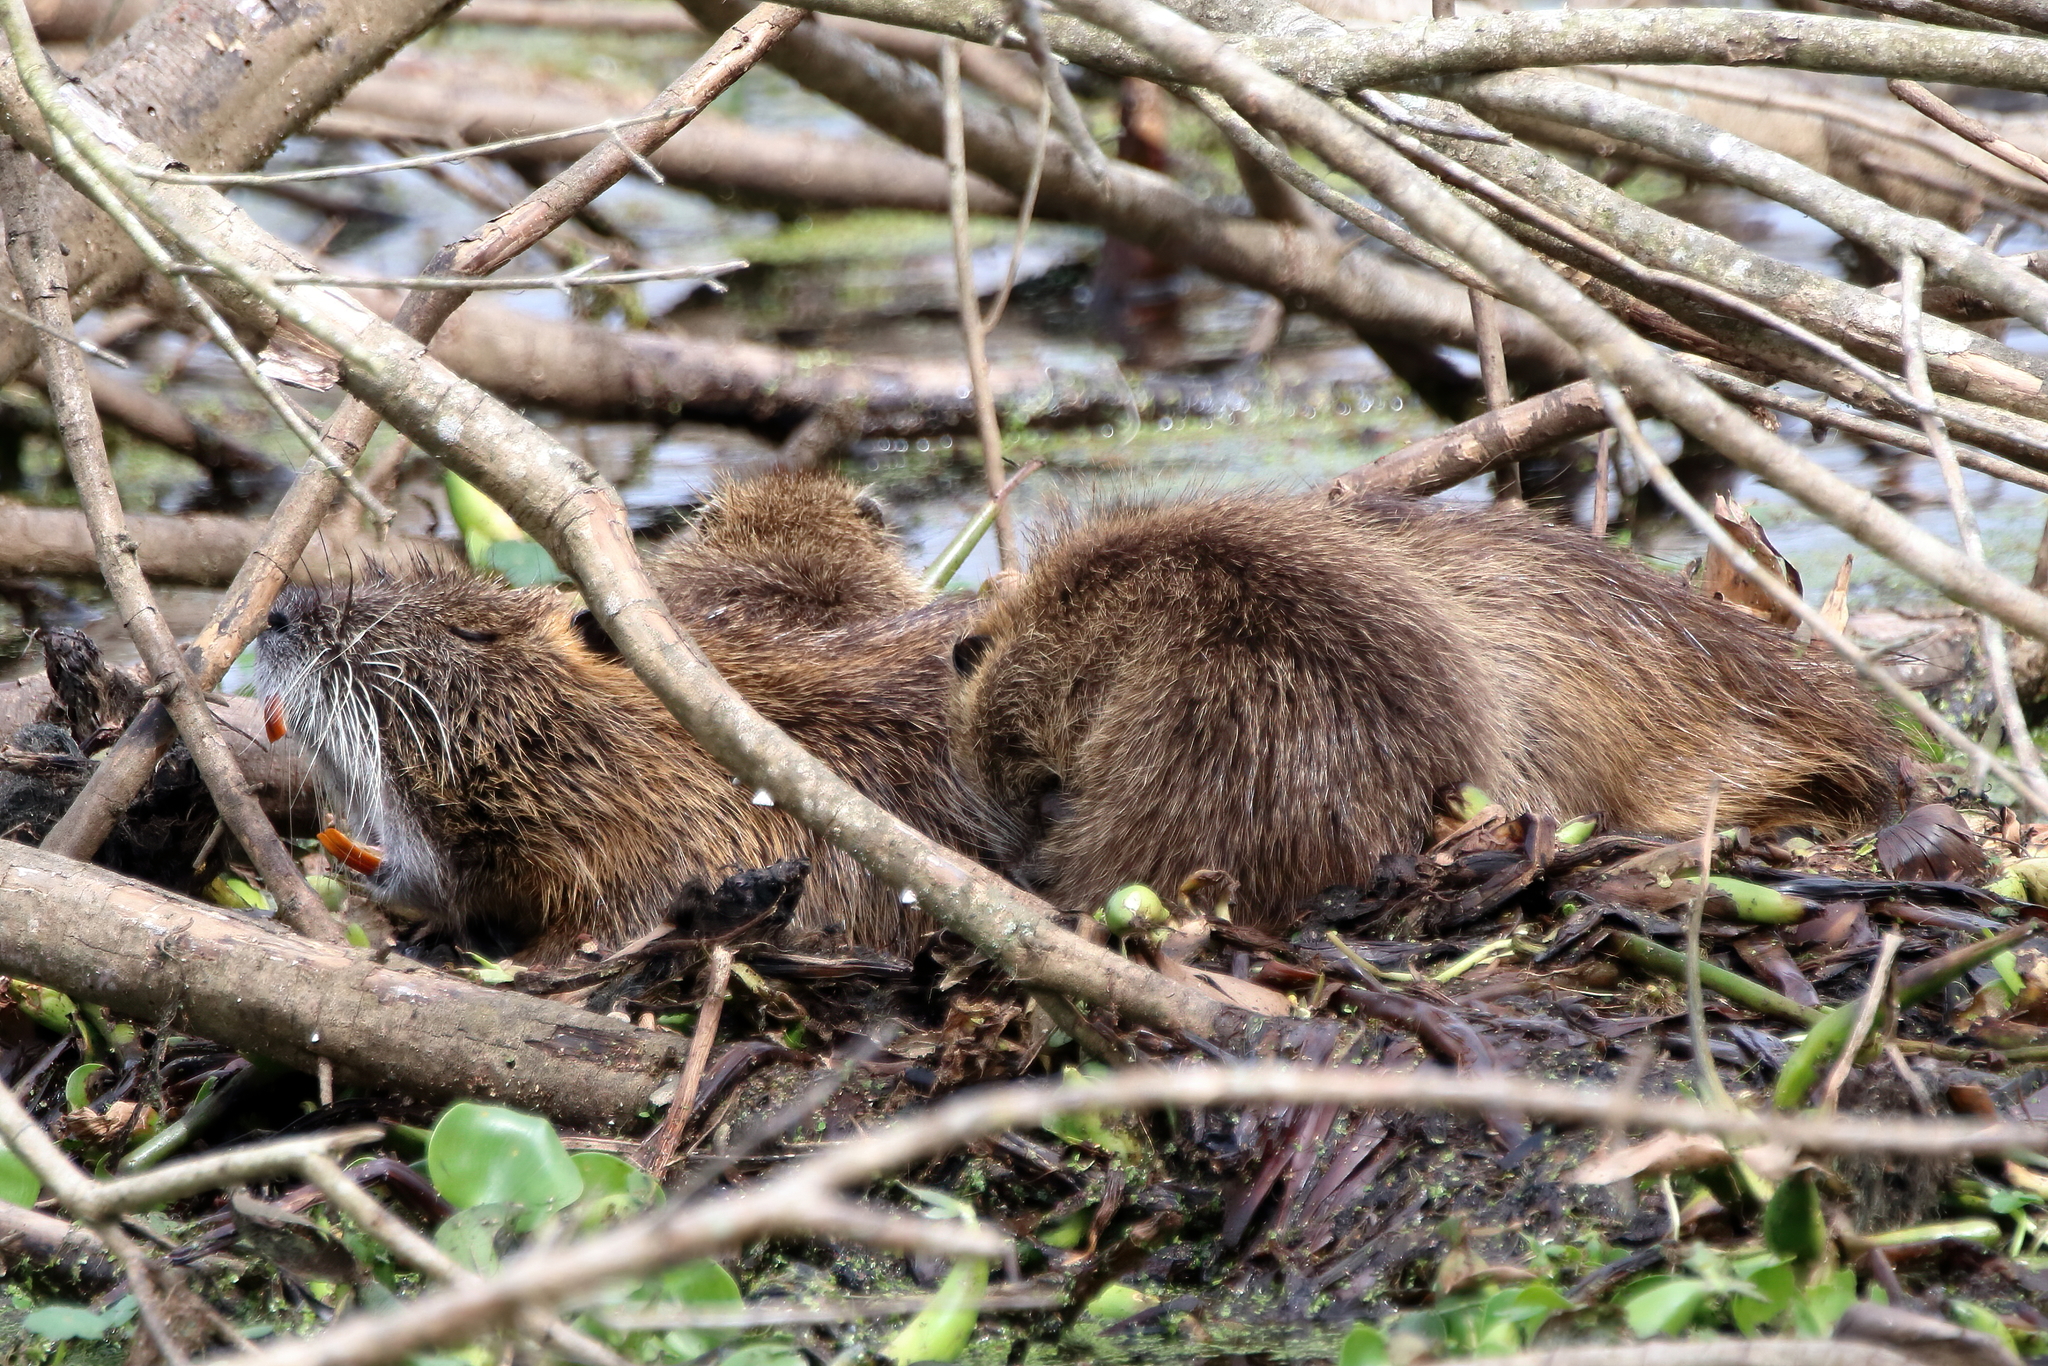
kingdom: Animalia
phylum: Chordata
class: Mammalia
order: Rodentia
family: Myocastoridae
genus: Myocastor
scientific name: Myocastor coypus
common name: Coypu
